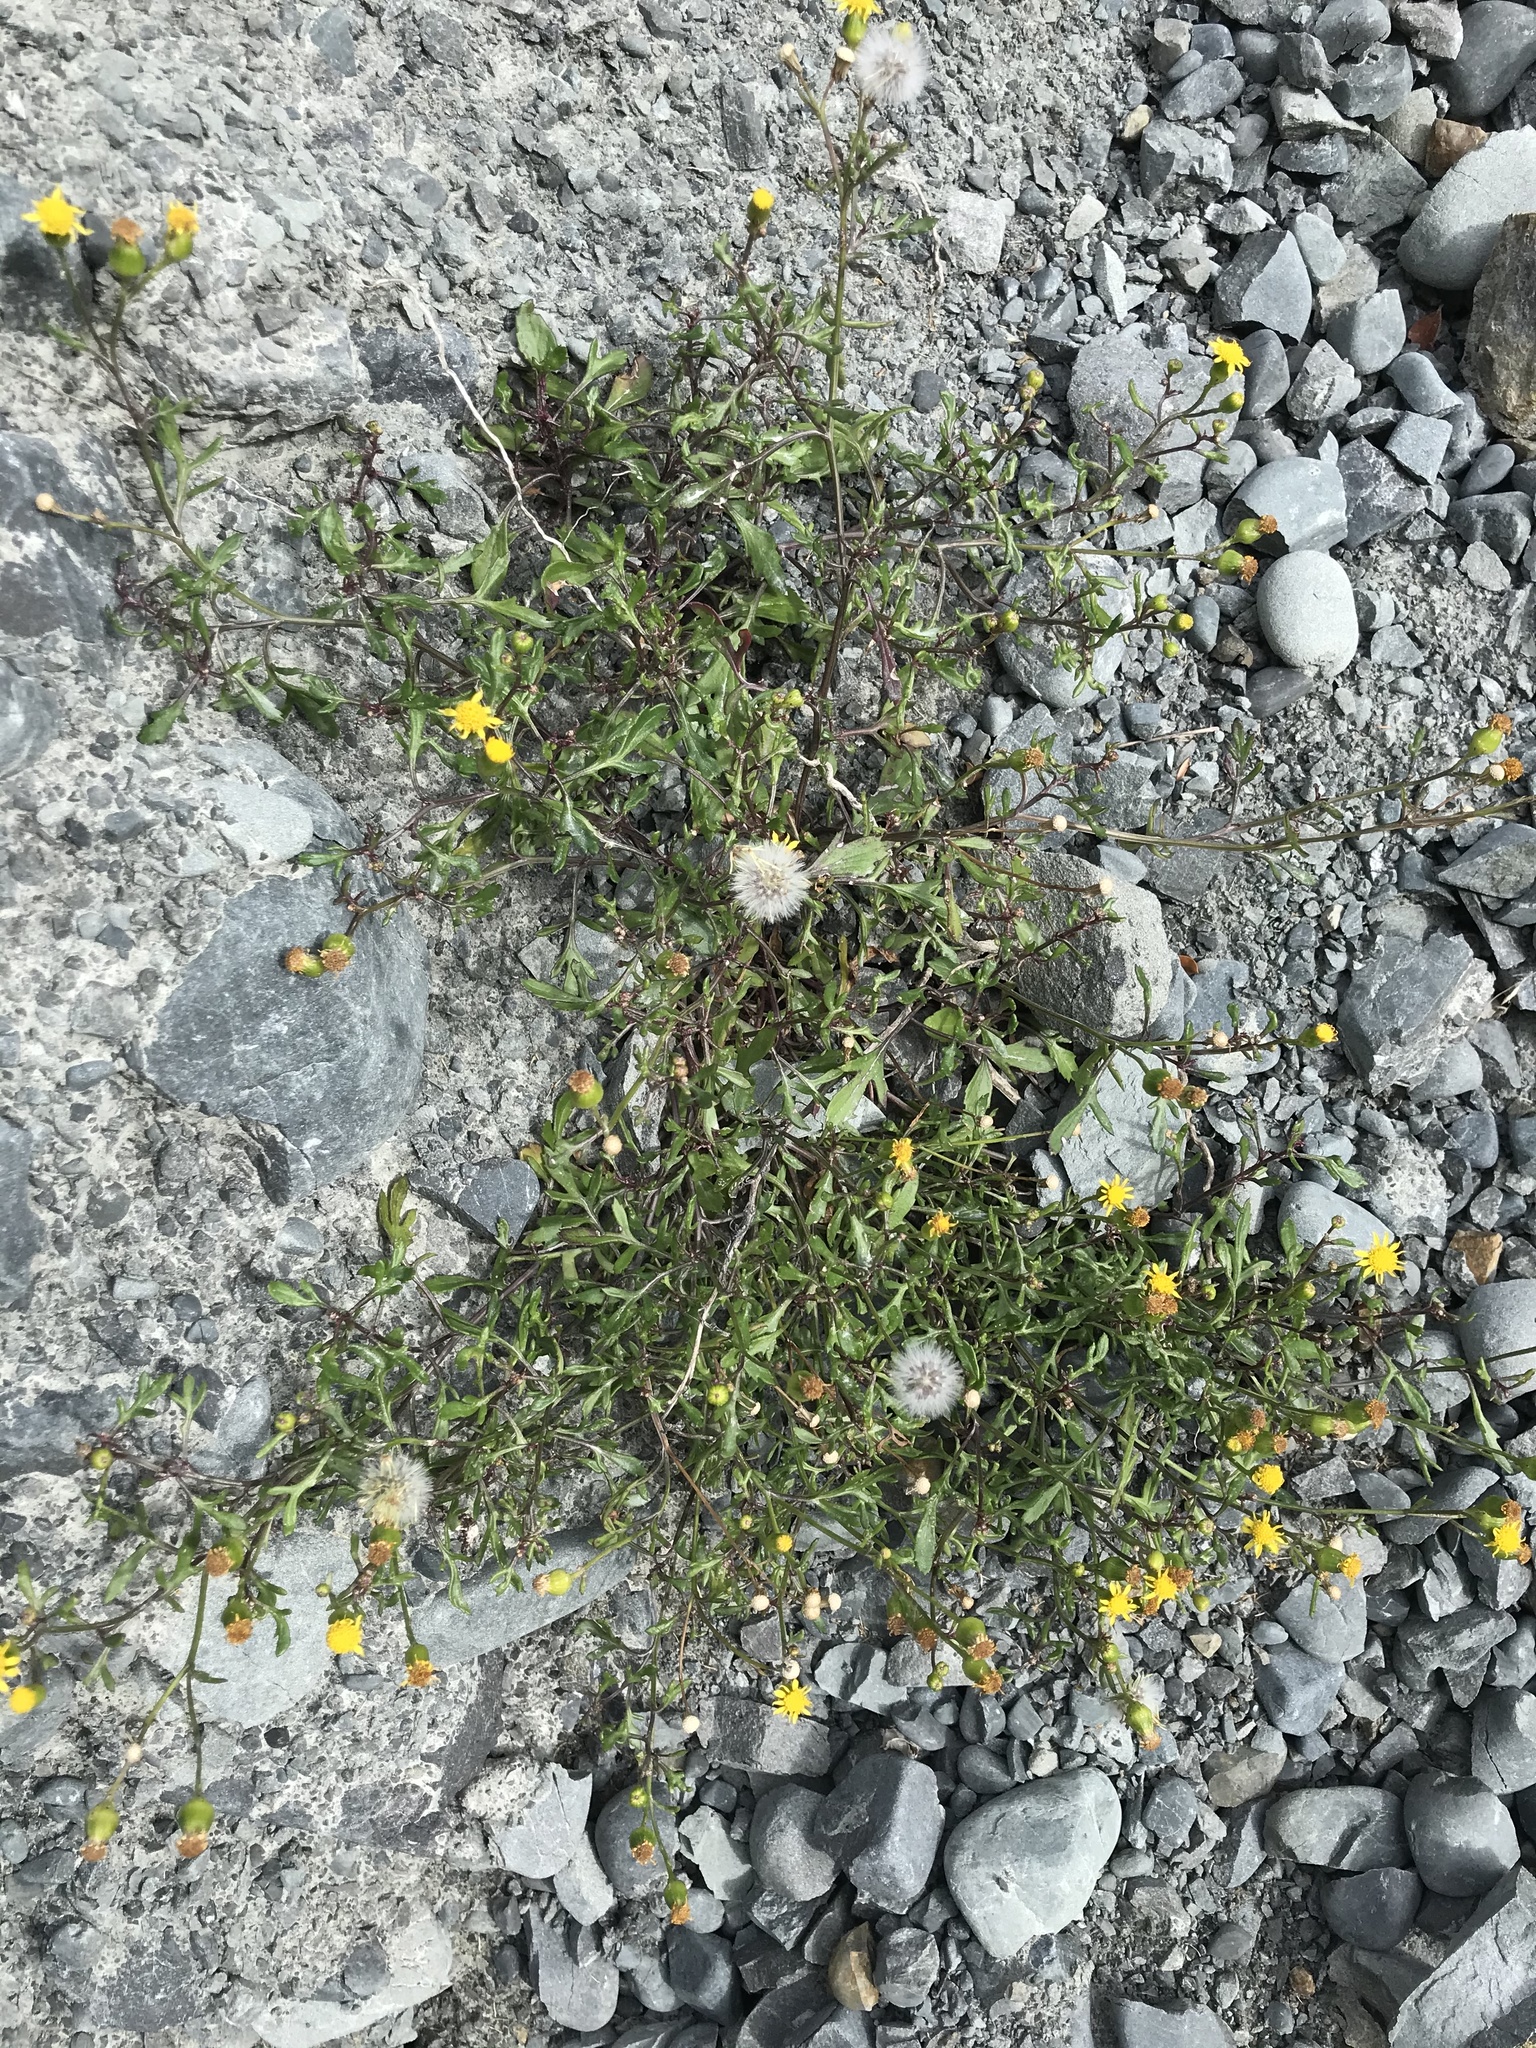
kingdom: Plantae
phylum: Tracheophyta
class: Magnoliopsida
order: Asterales
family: Asteraceae
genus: Senecio
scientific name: Senecio skirrhodon
